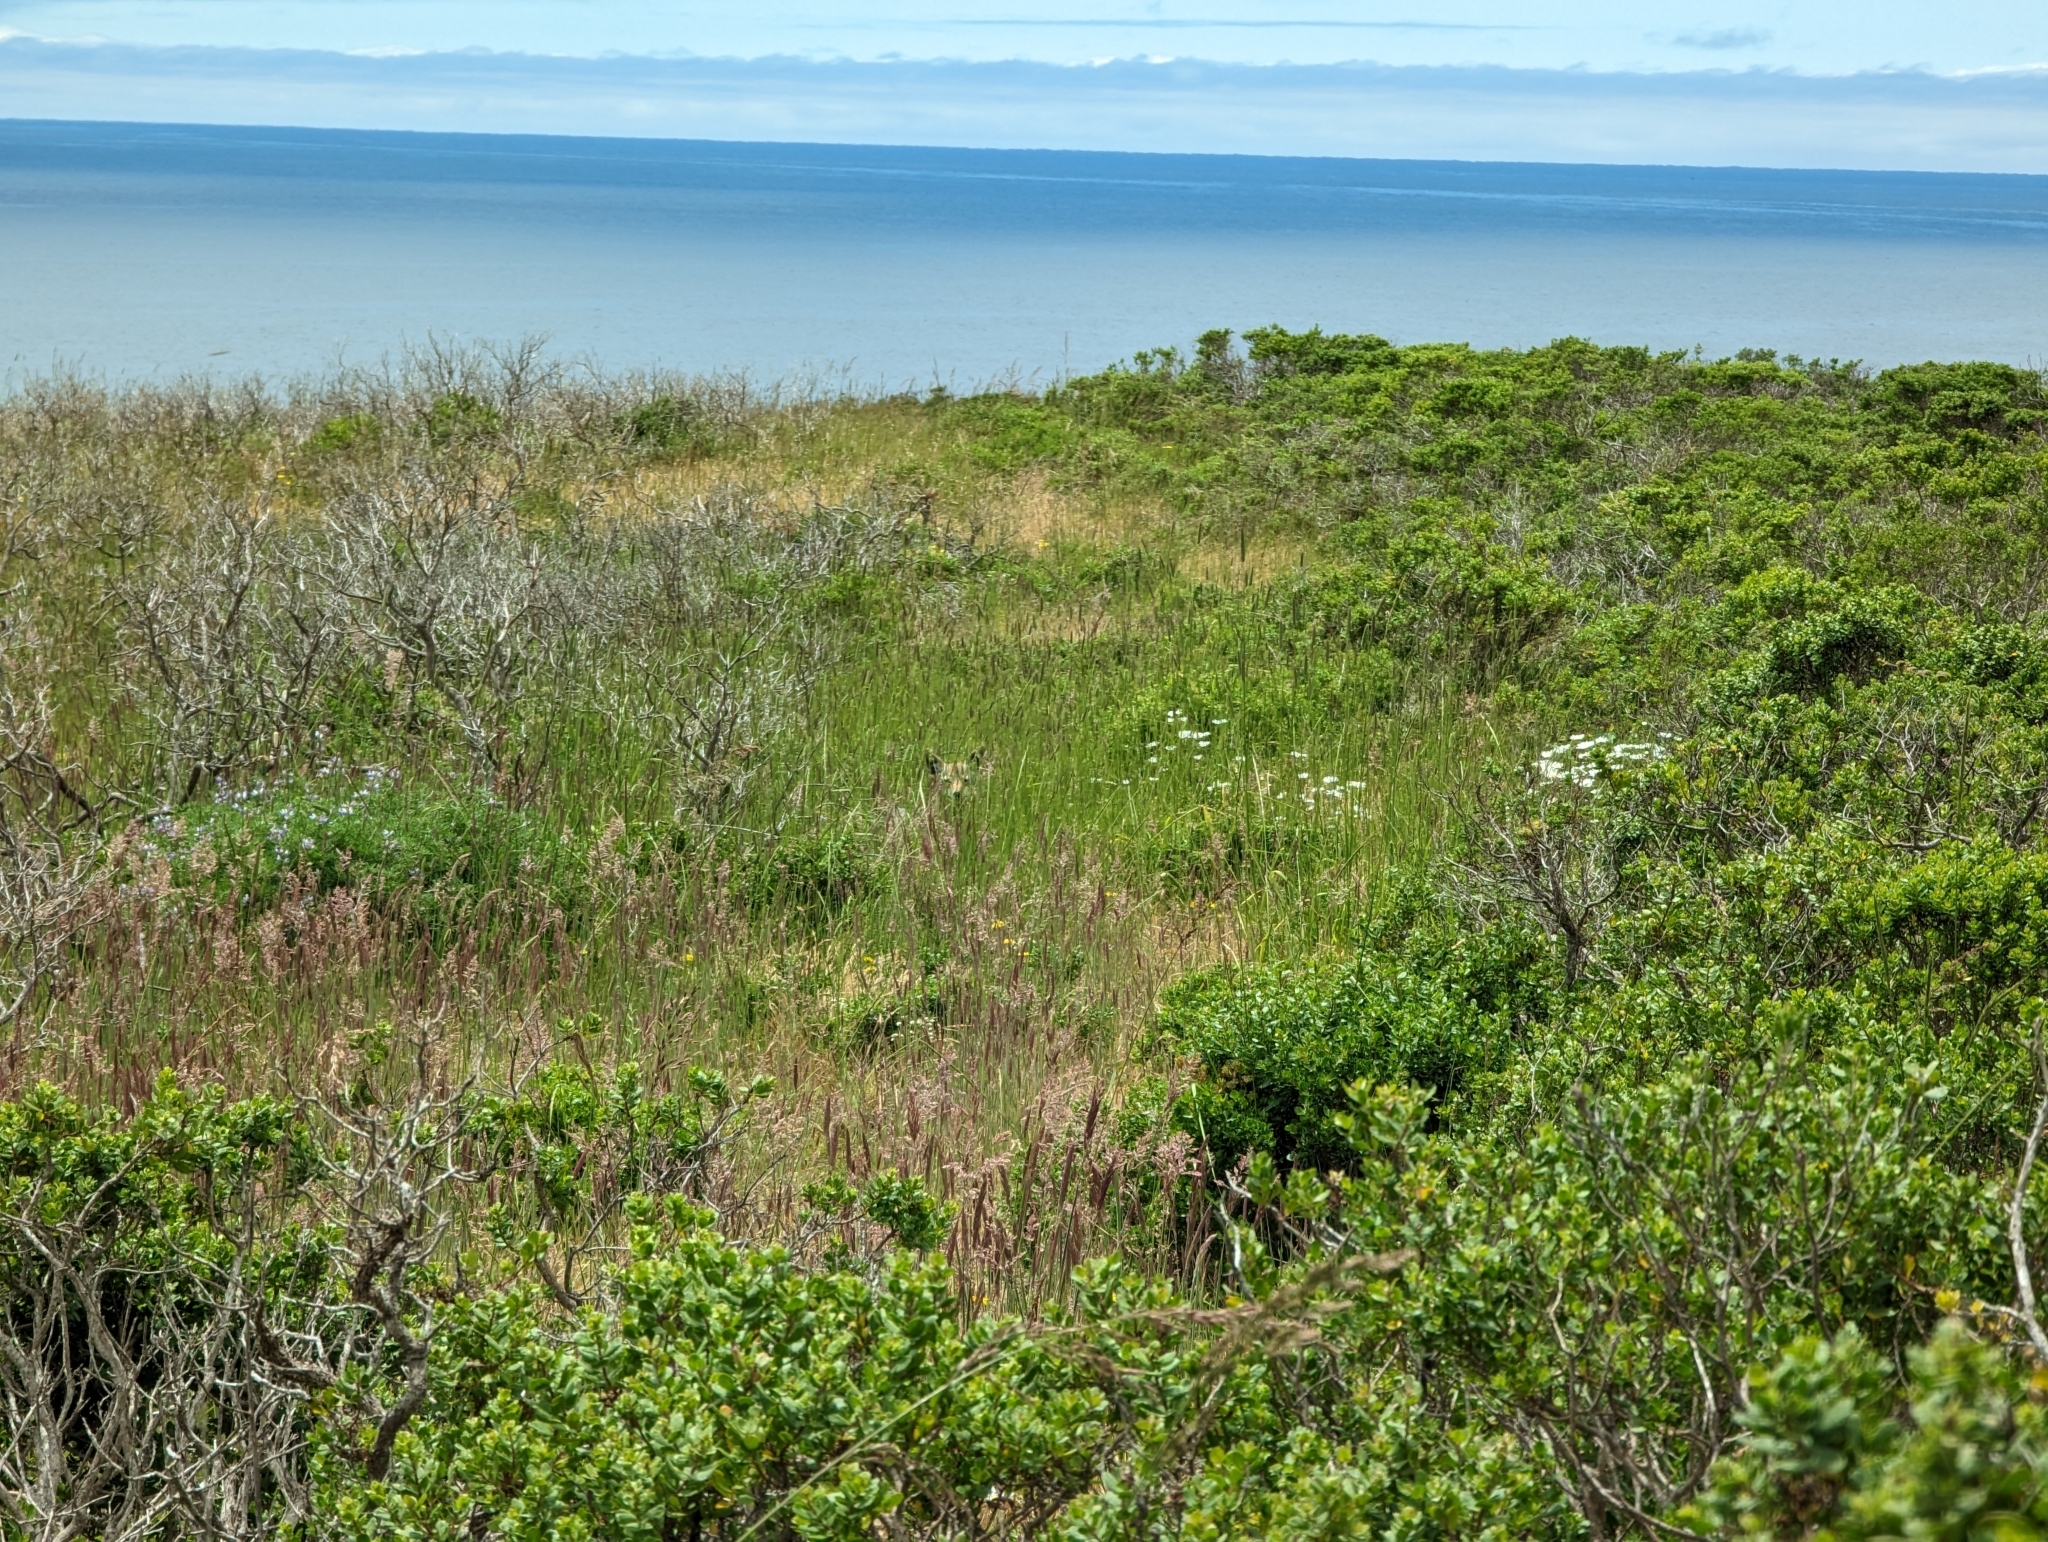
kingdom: Animalia
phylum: Chordata
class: Mammalia
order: Carnivora
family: Canidae
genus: Canis
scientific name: Canis latrans
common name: Coyote
